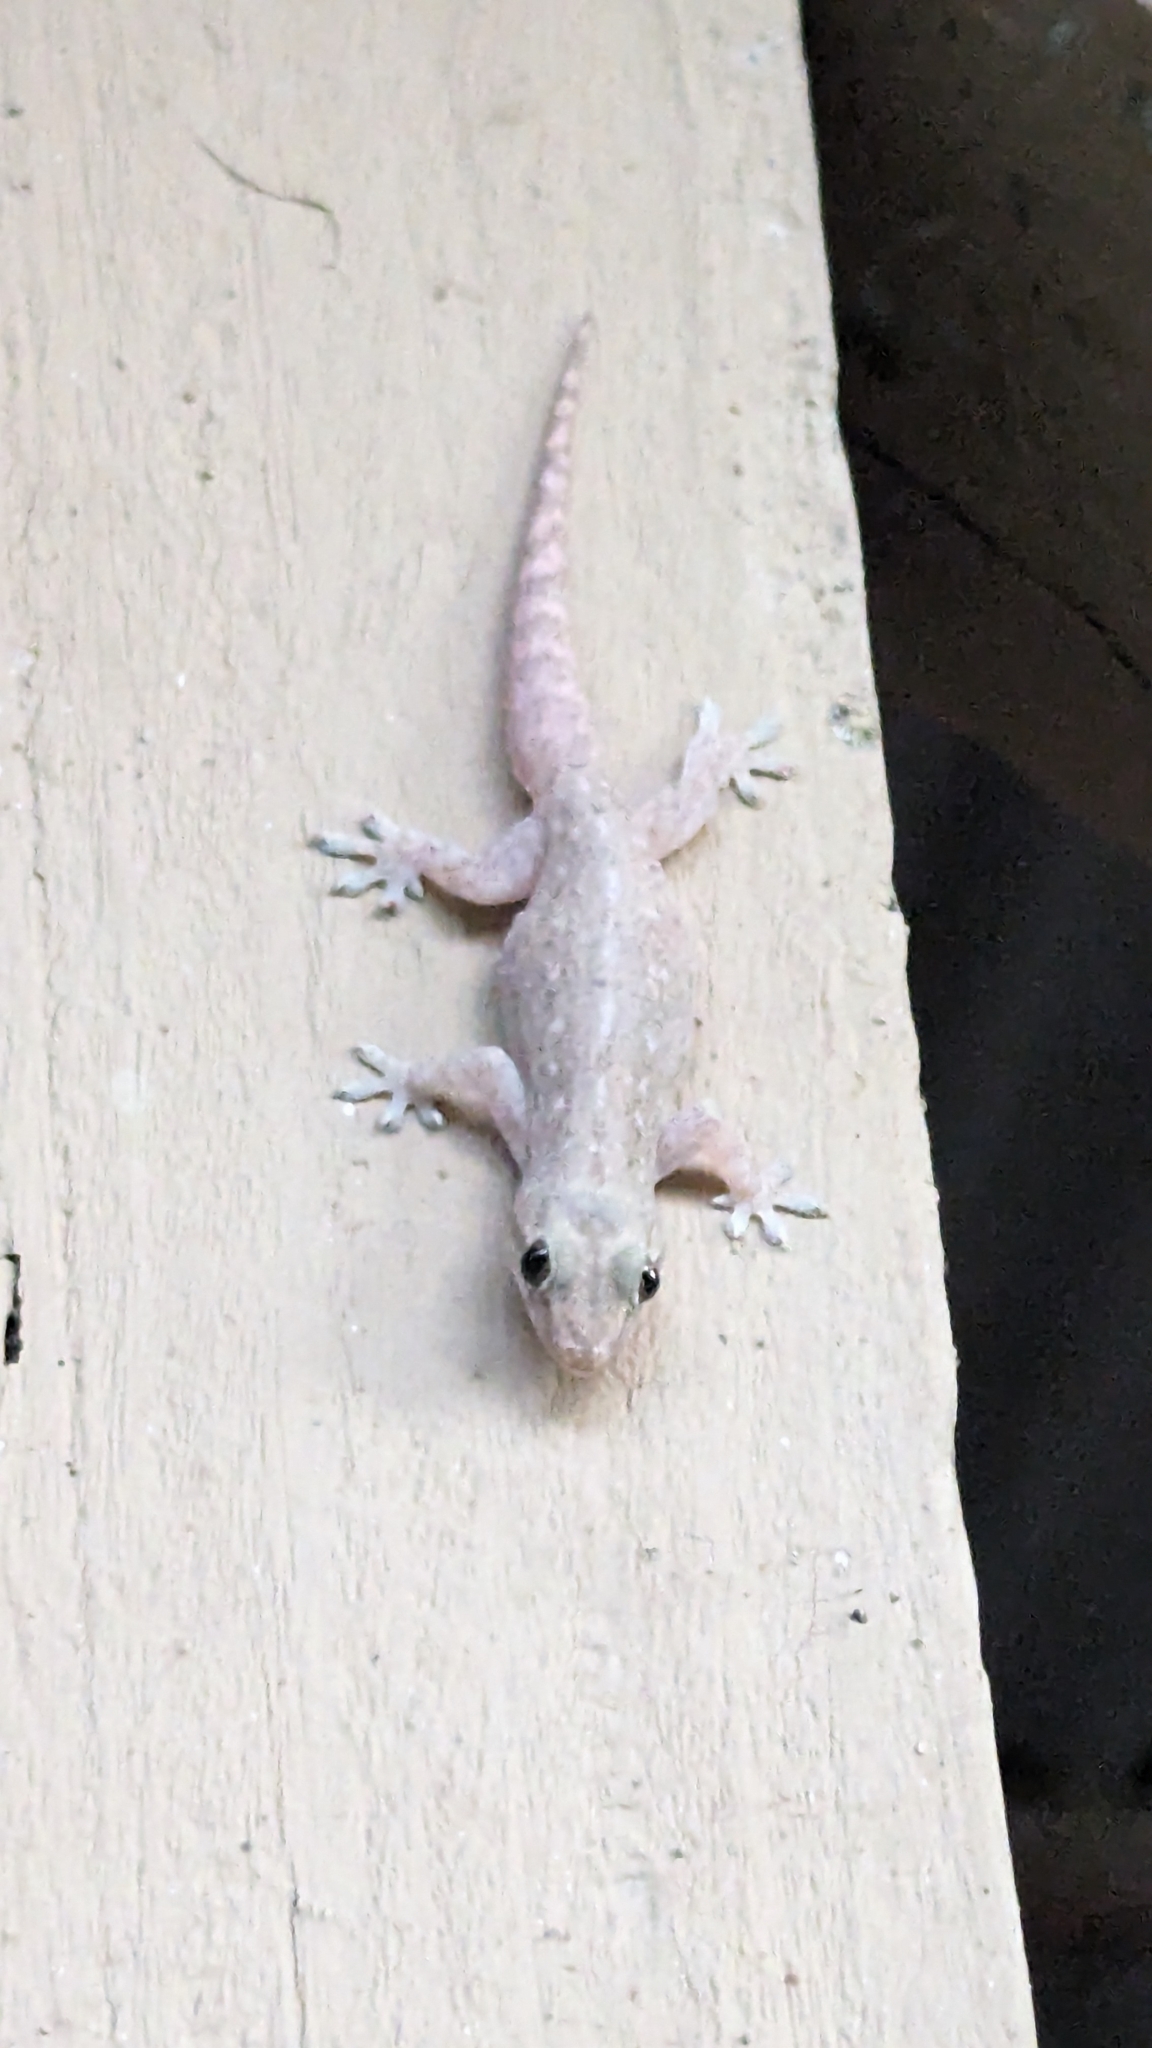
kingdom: Animalia
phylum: Chordata
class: Squamata
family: Gekkonidae
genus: Hemidactylus
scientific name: Hemidactylus frenatus
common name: Common house gecko
